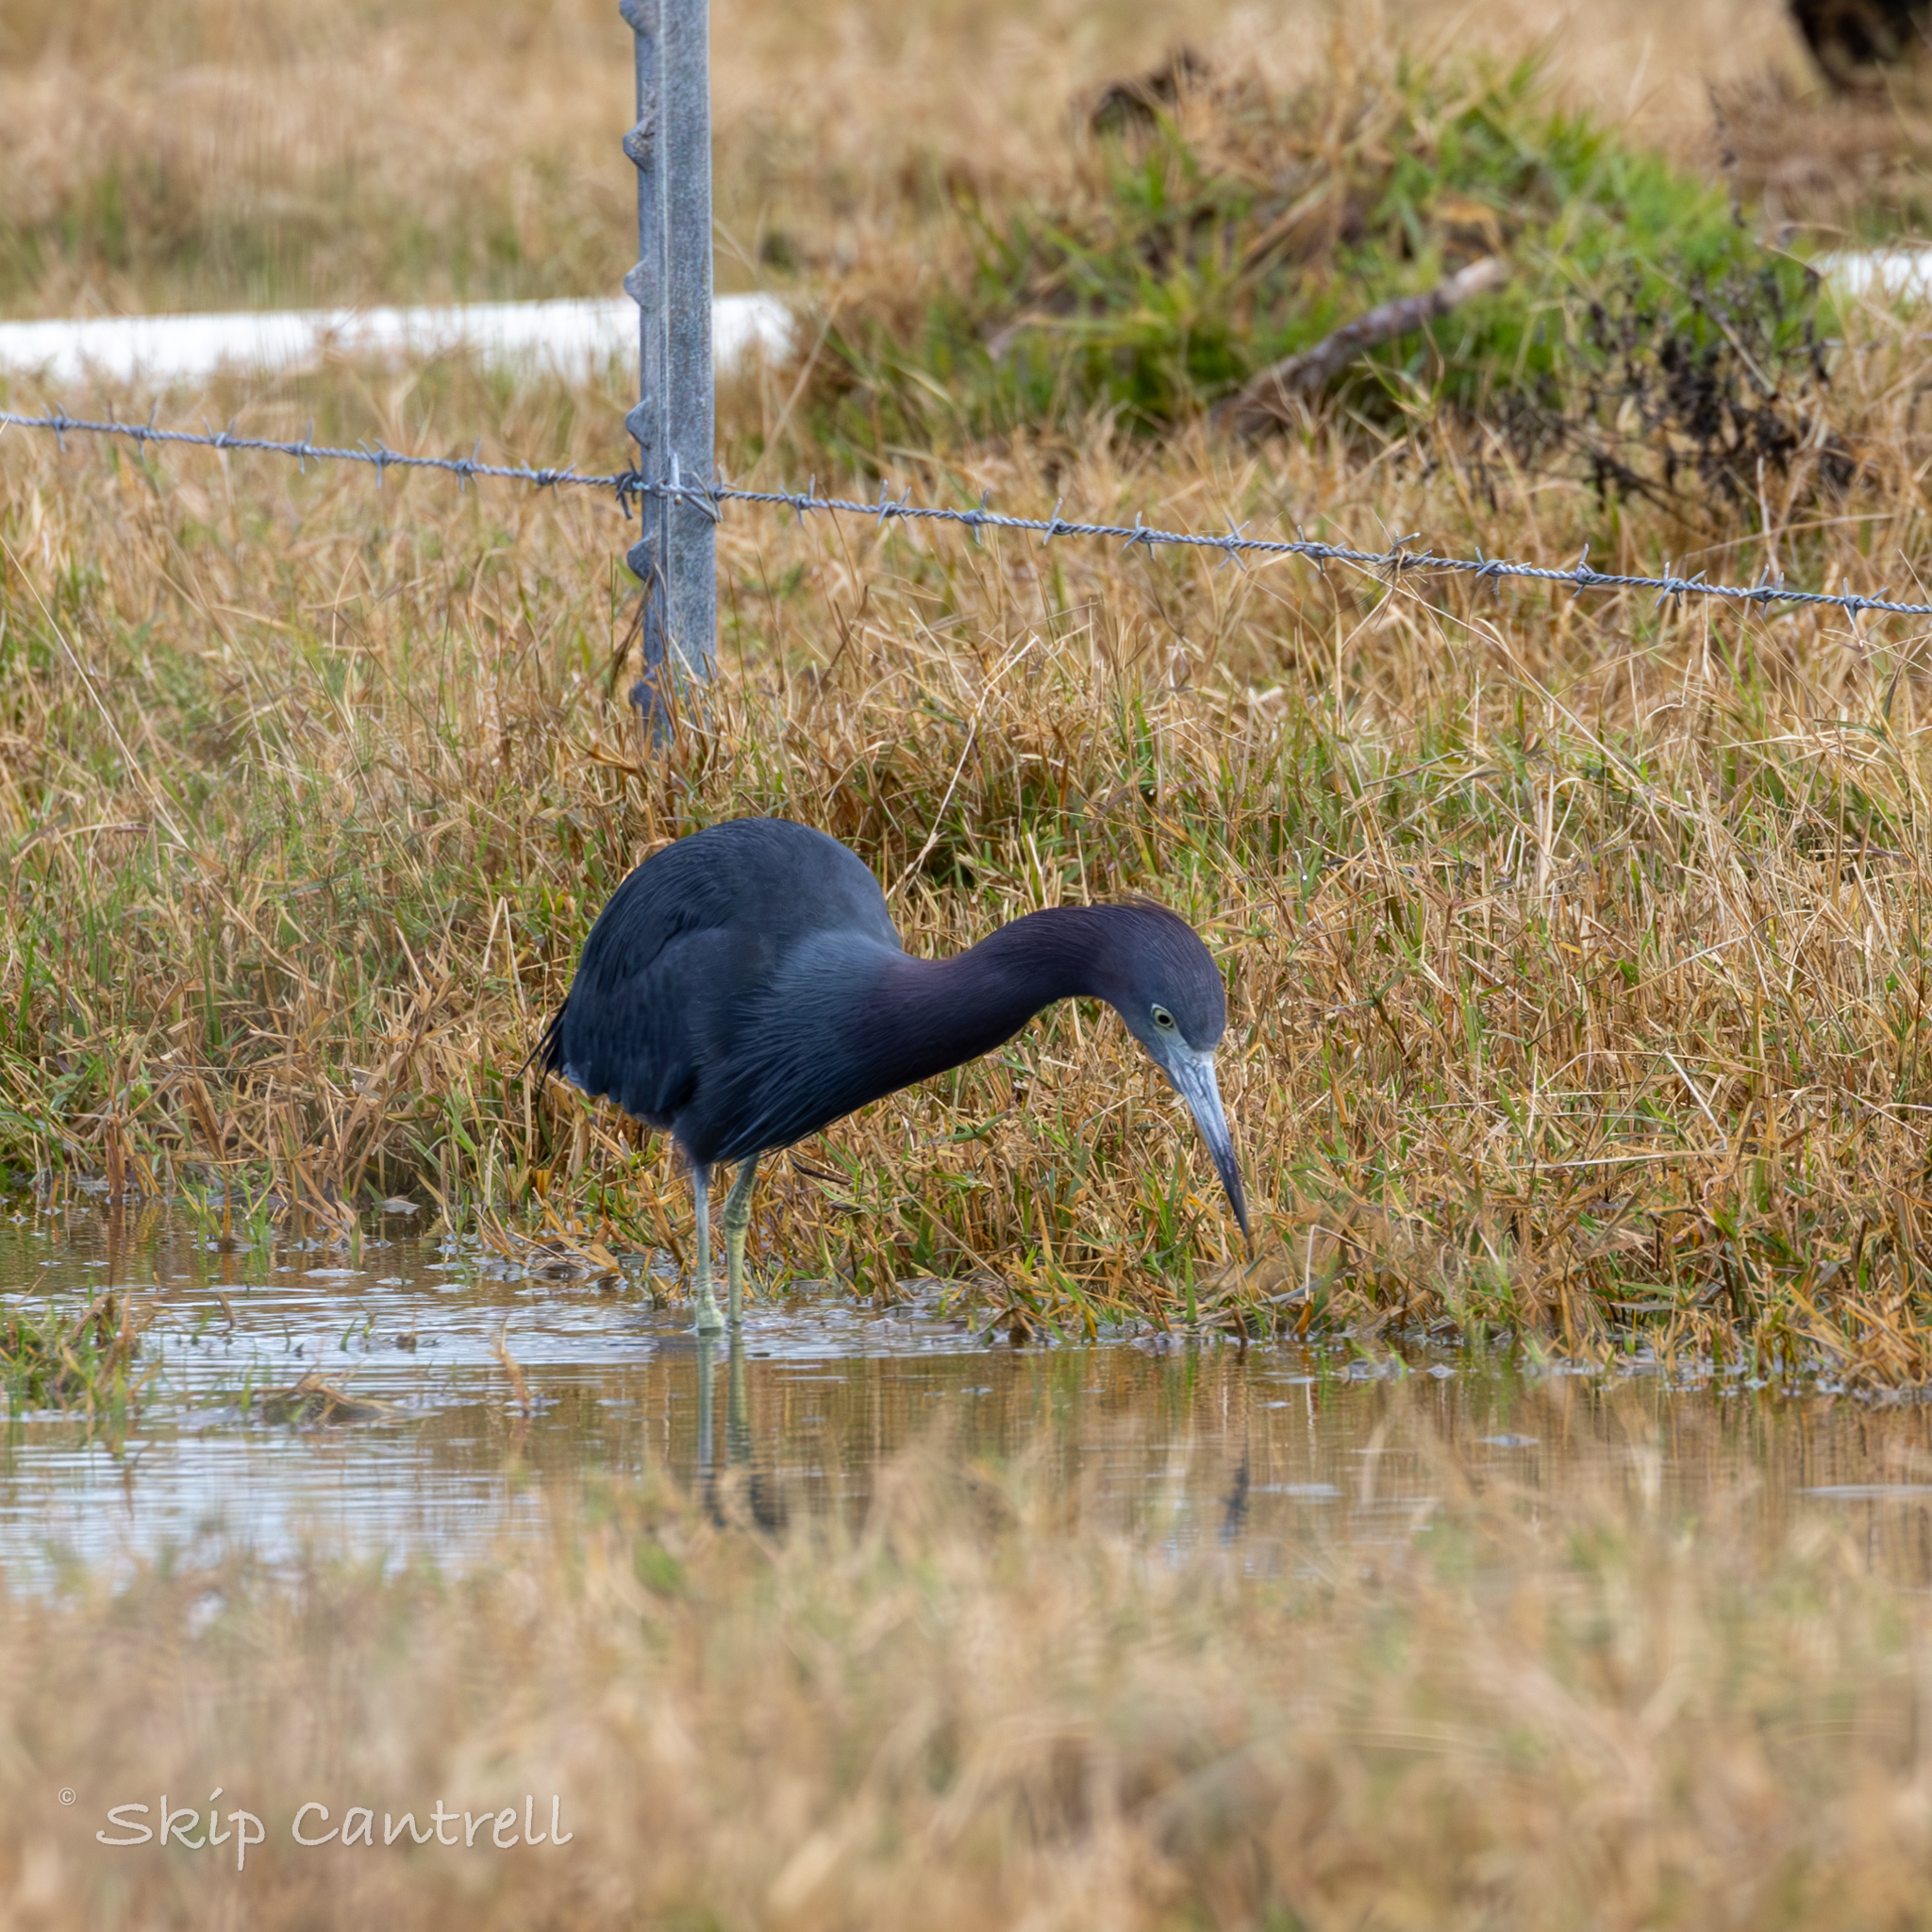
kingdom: Animalia
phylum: Chordata
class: Aves
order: Pelecaniformes
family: Ardeidae
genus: Egretta
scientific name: Egretta caerulea
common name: Little blue heron
